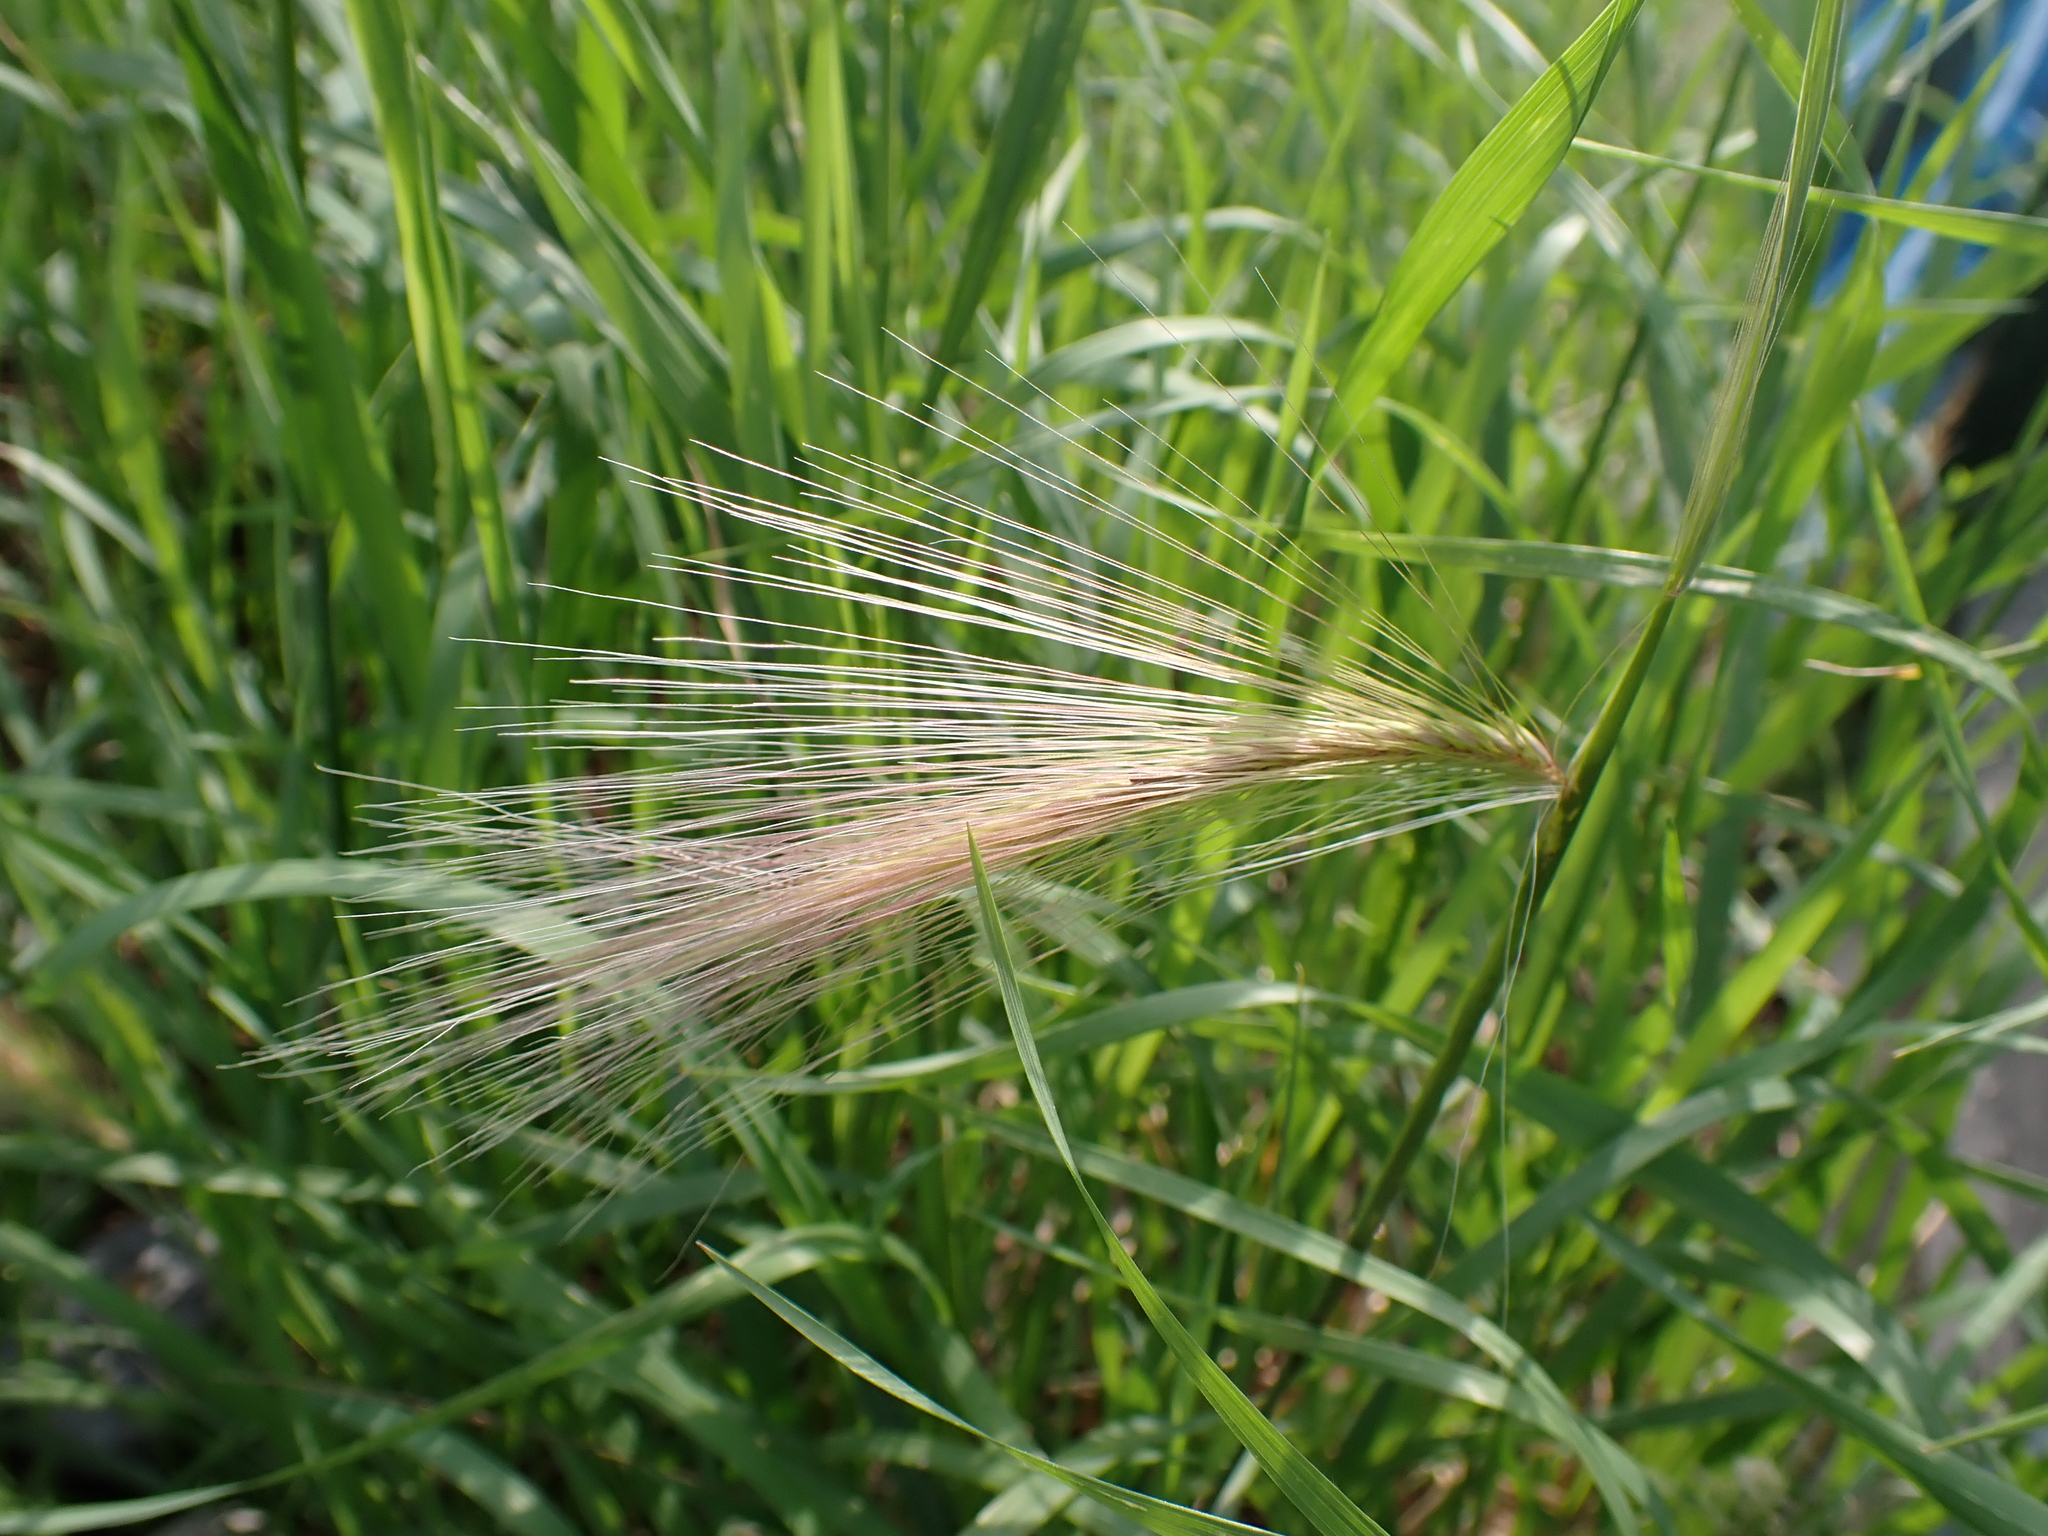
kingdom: Plantae
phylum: Tracheophyta
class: Liliopsida
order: Poales
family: Poaceae
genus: Hordeum
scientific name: Hordeum jubatum
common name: Foxtail barley
